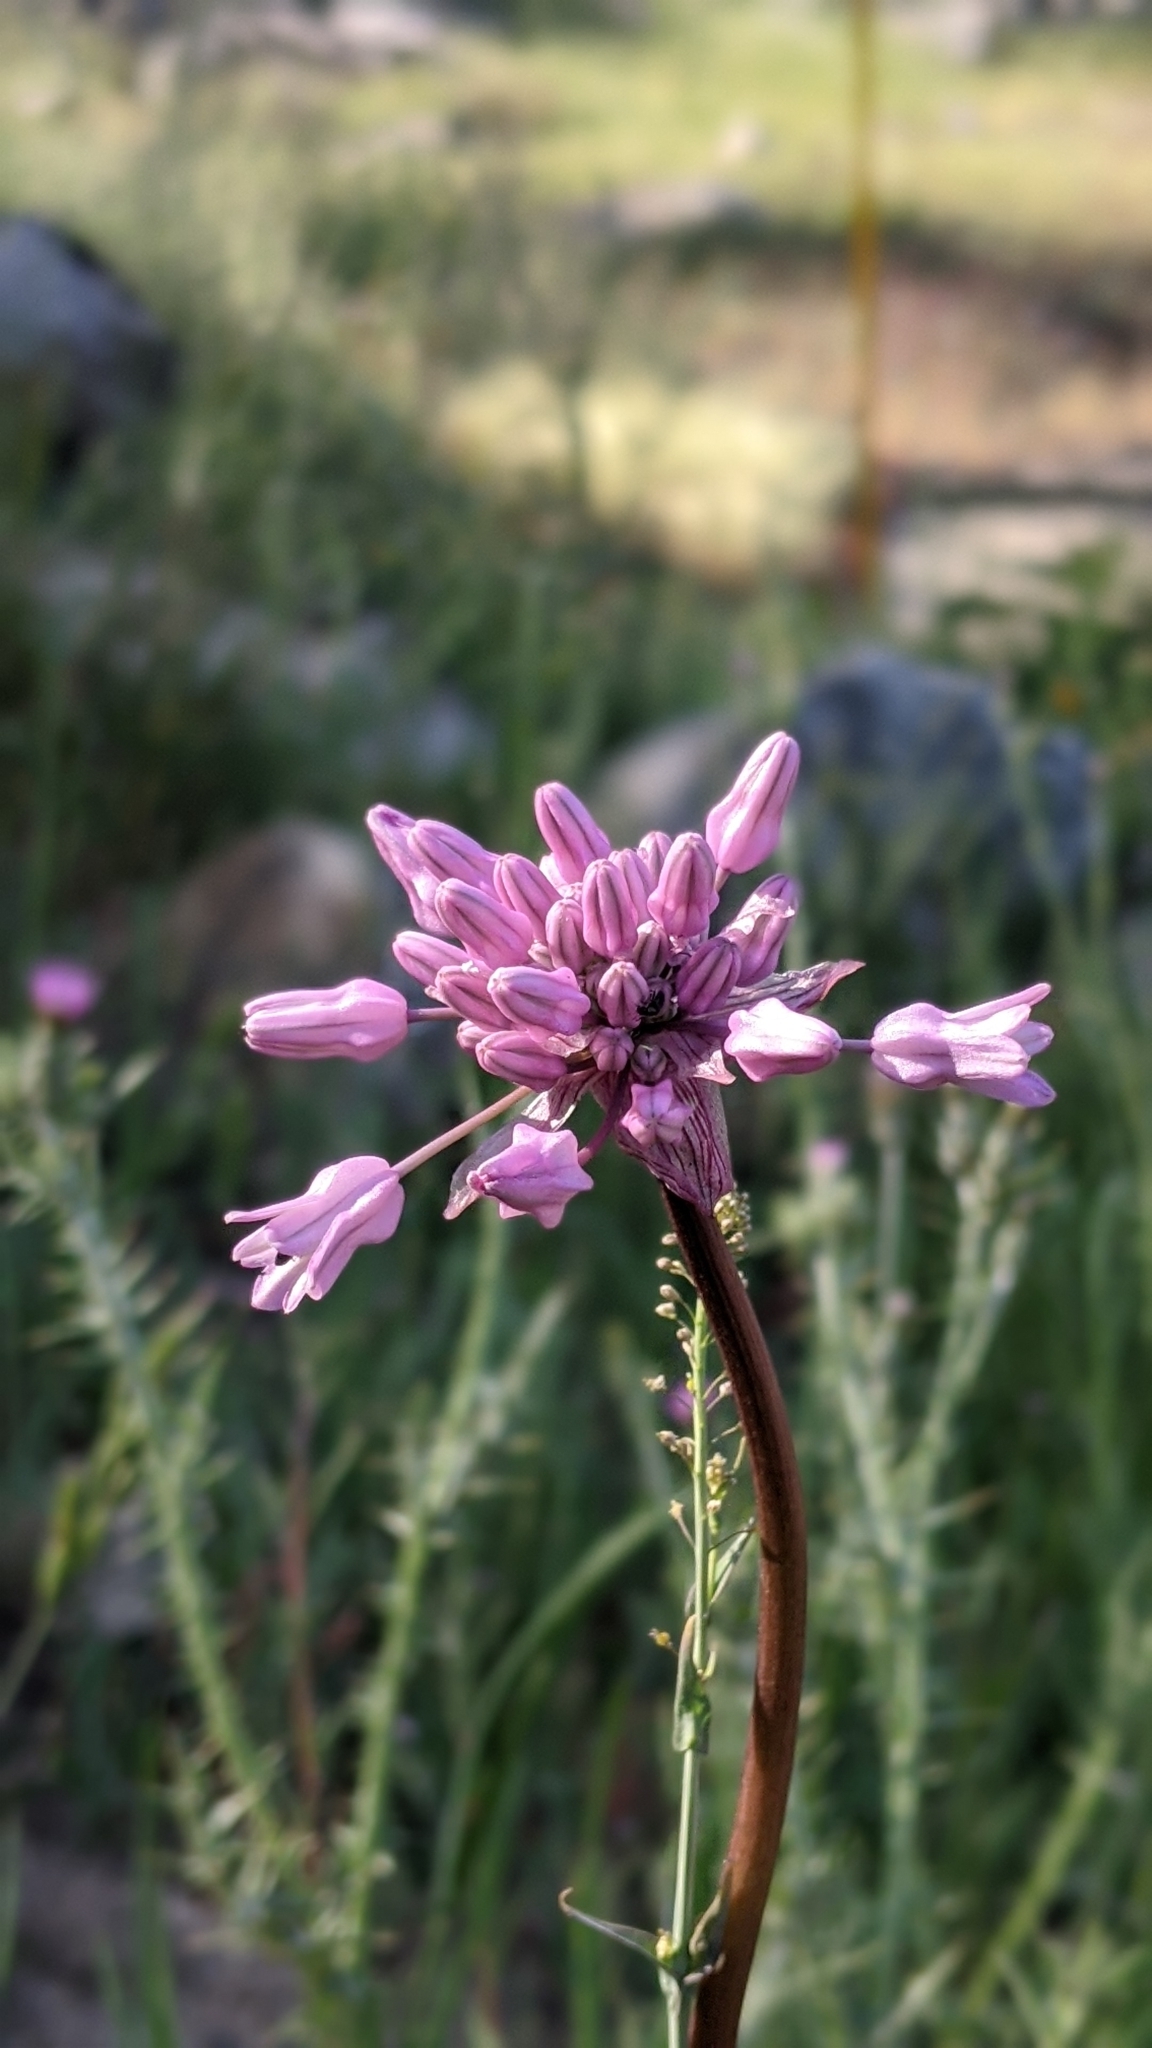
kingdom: Plantae
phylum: Tracheophyta
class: Liliopsida
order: Asparagales
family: Asparagaceae
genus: Dichelostemma
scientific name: Dichelostemma volubile
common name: Trining brodiaea
